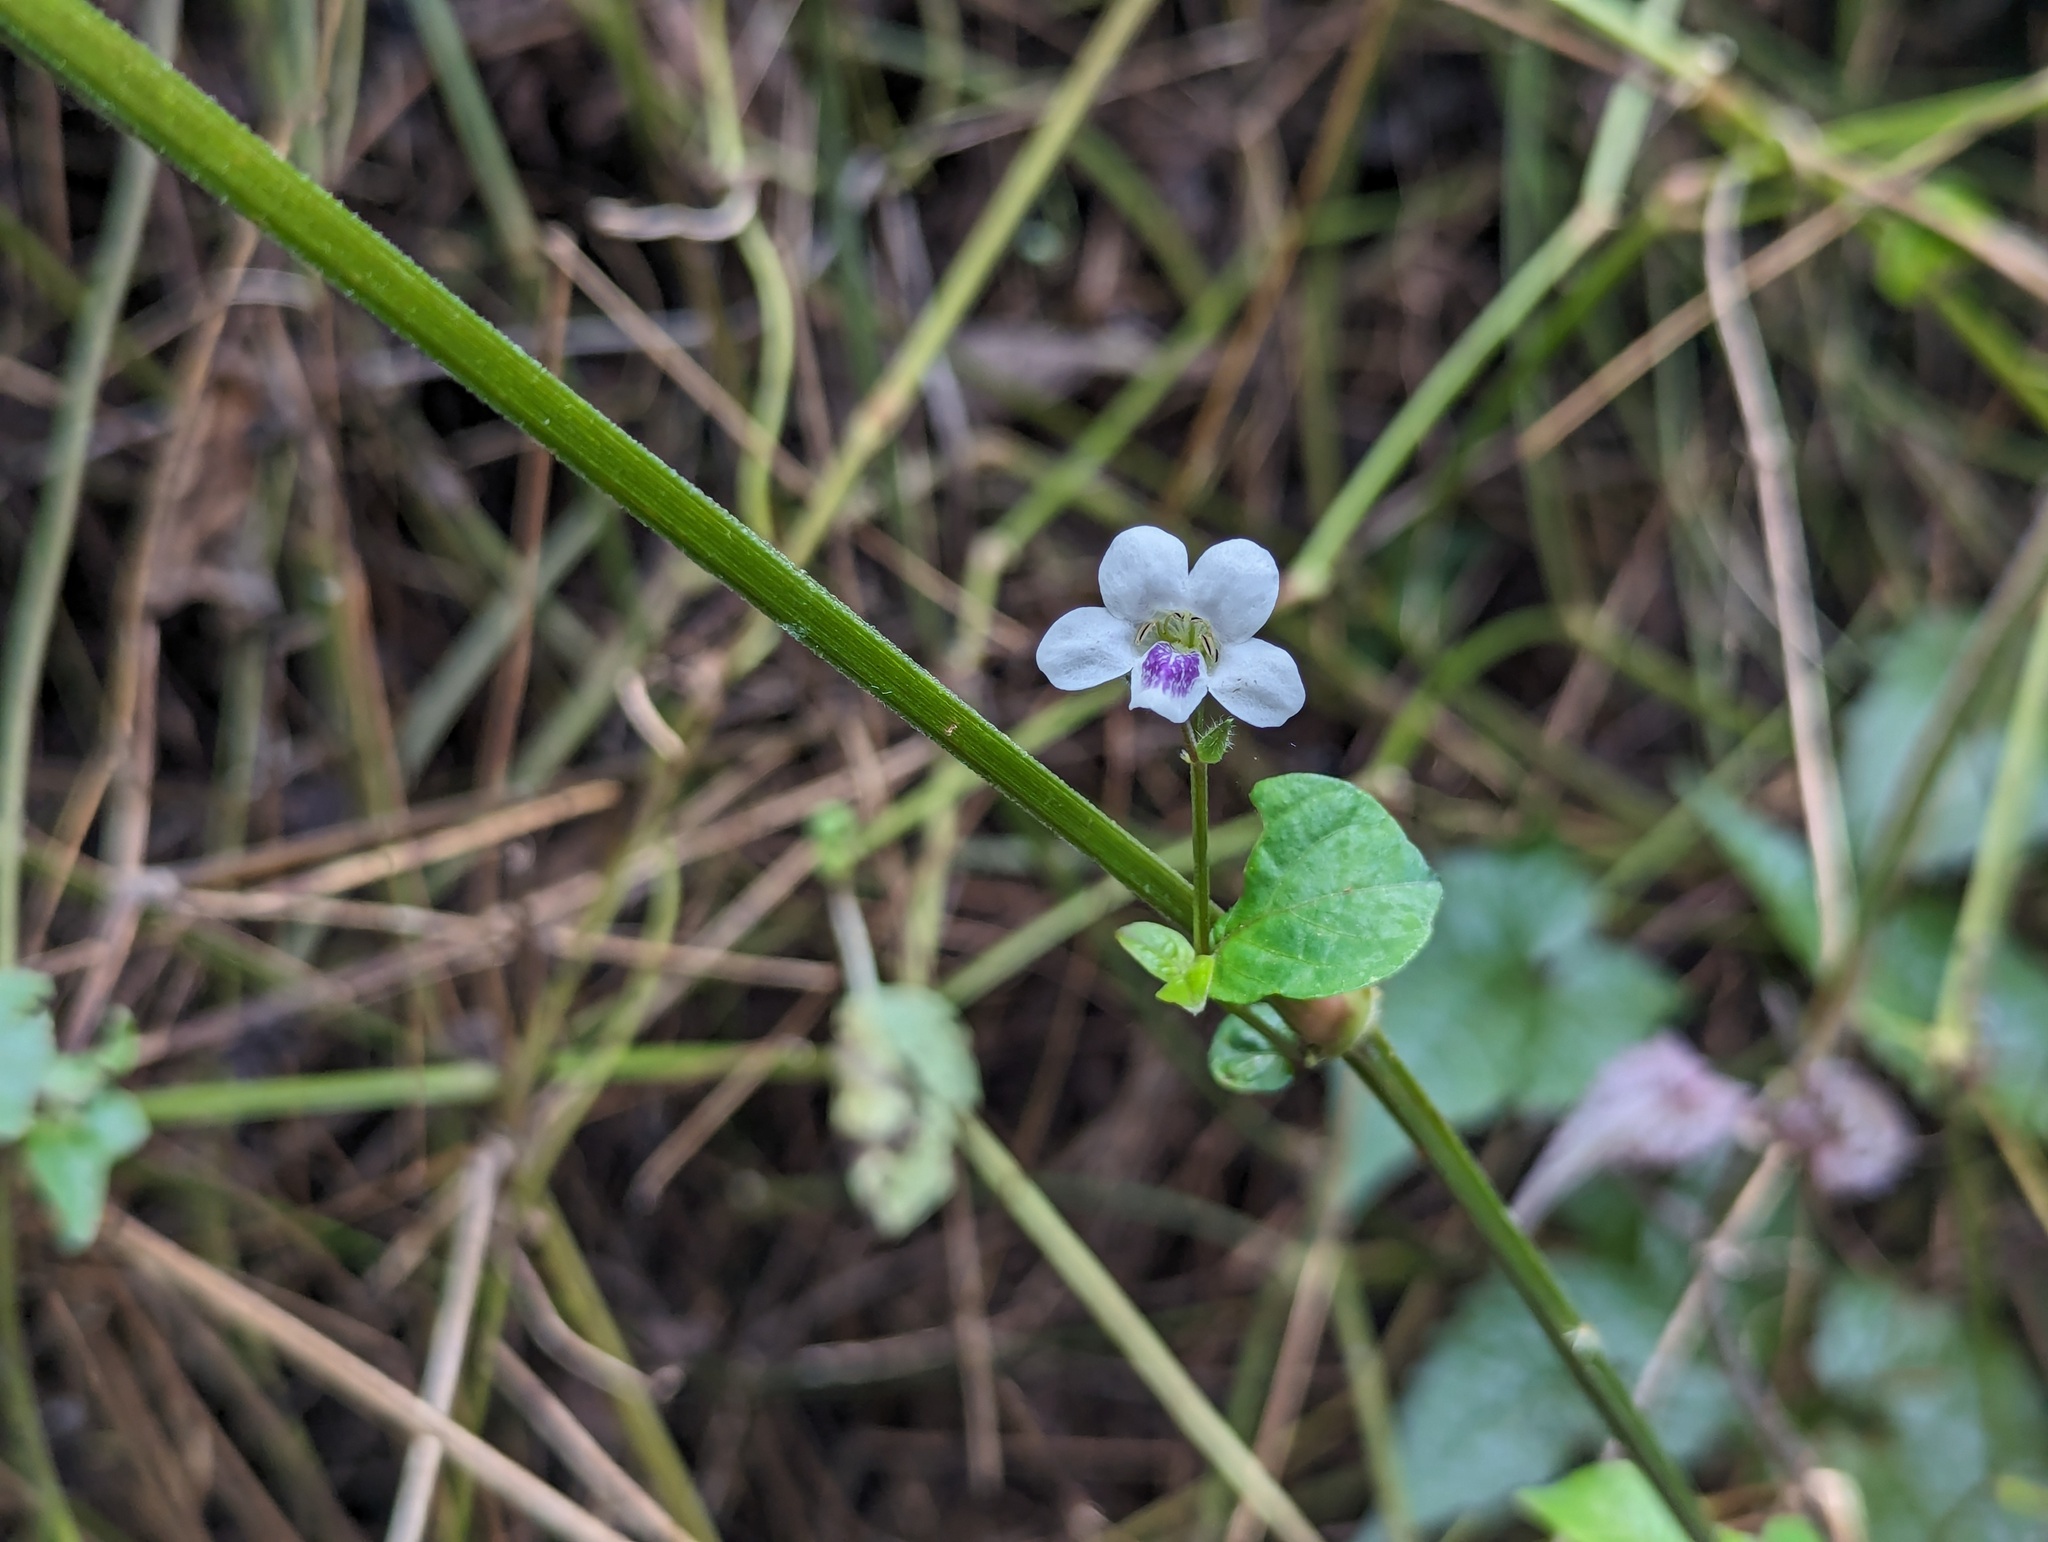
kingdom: Plantae
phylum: Tracheophyta
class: Magnoliopsida
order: Lamiales
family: Acanthaceae
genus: Asystasia
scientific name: Asystasia intrusa
